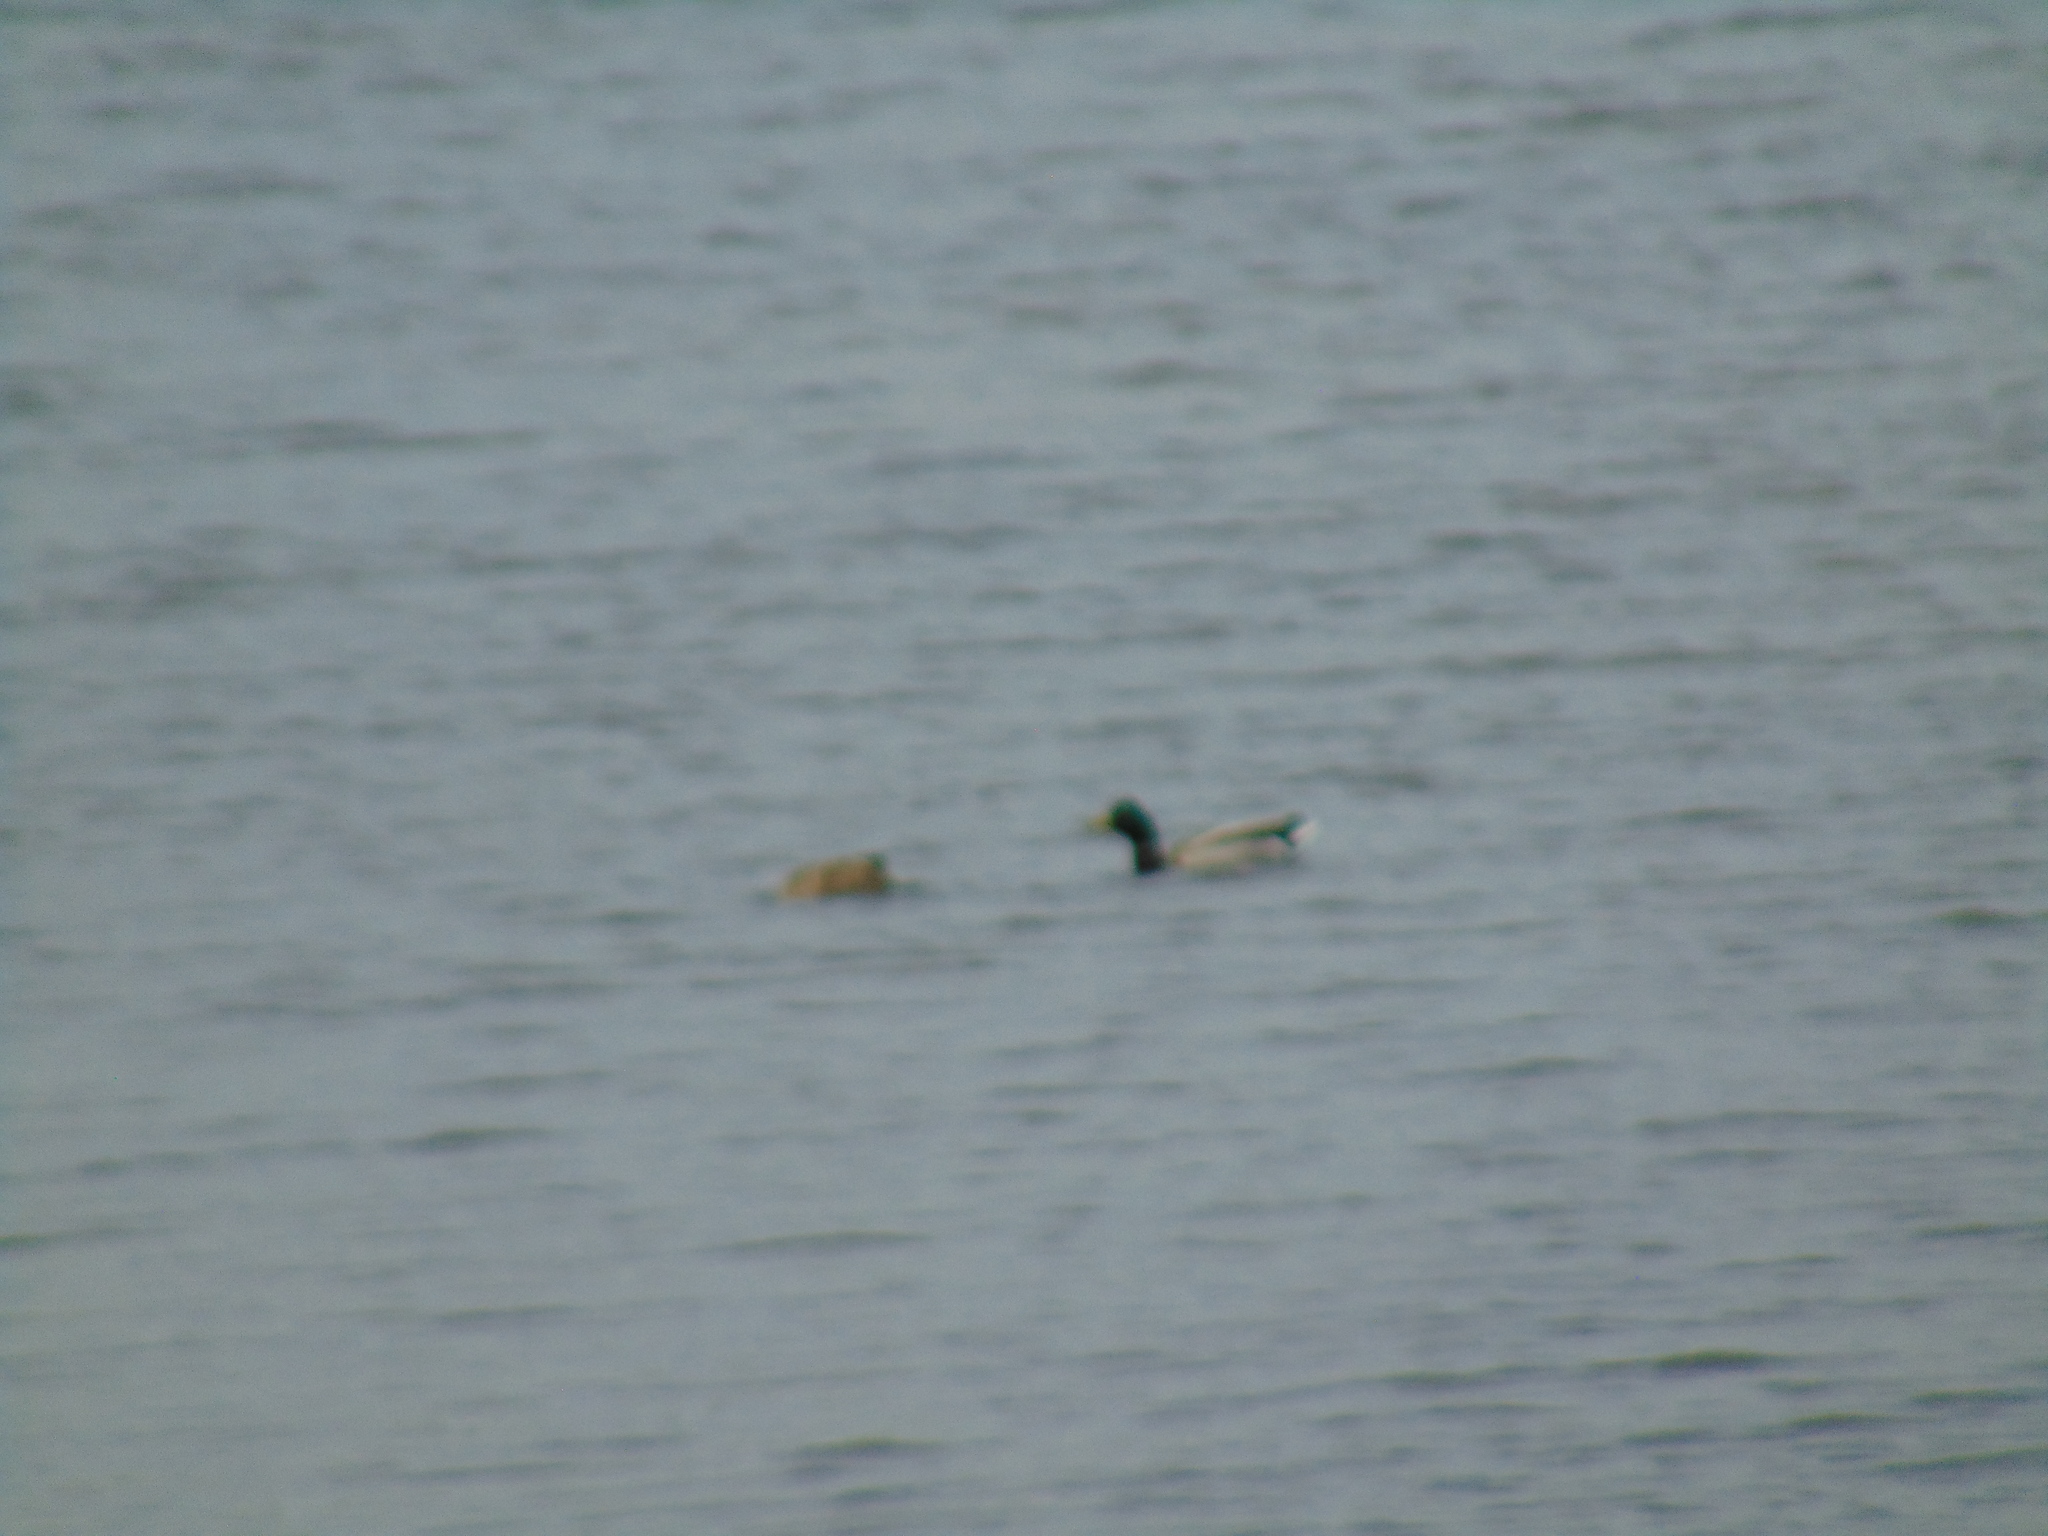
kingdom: Animalia
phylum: Chordata
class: Aves
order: Anseriformes
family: Anatidae
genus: Anas
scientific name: Anas platyrhynchos
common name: Mallard
